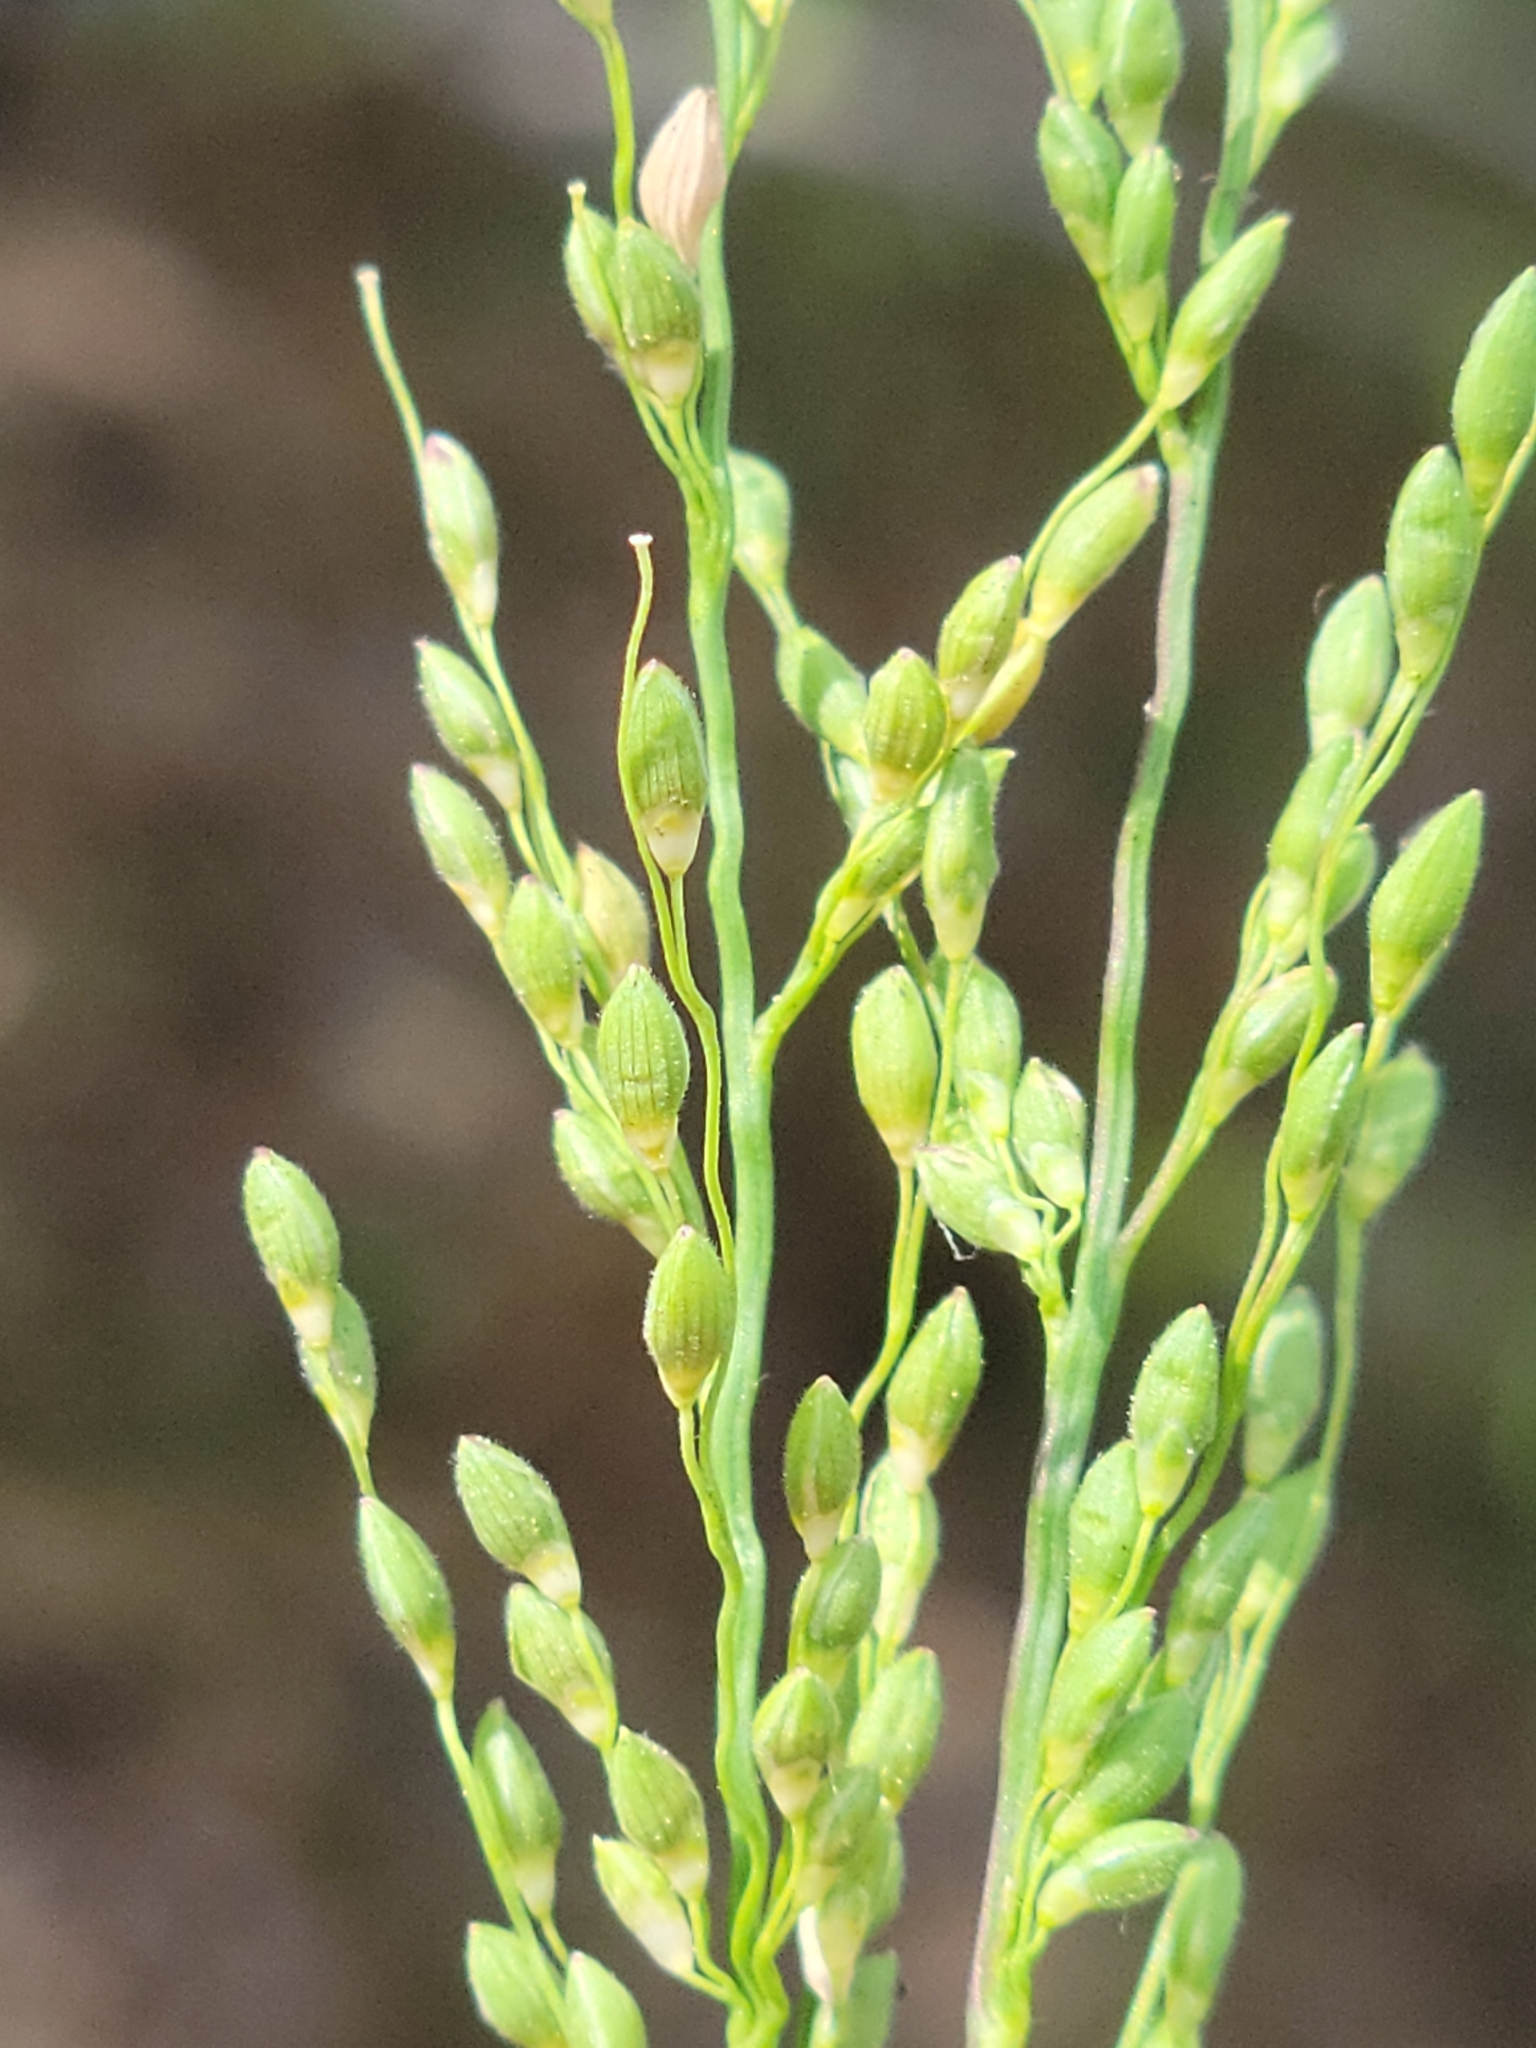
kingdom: Plantae
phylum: Tracheophyta
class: Liliopsida
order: Poales
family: Poaceae
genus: Dichanthelium
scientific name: Dichanthelium neuranthum
